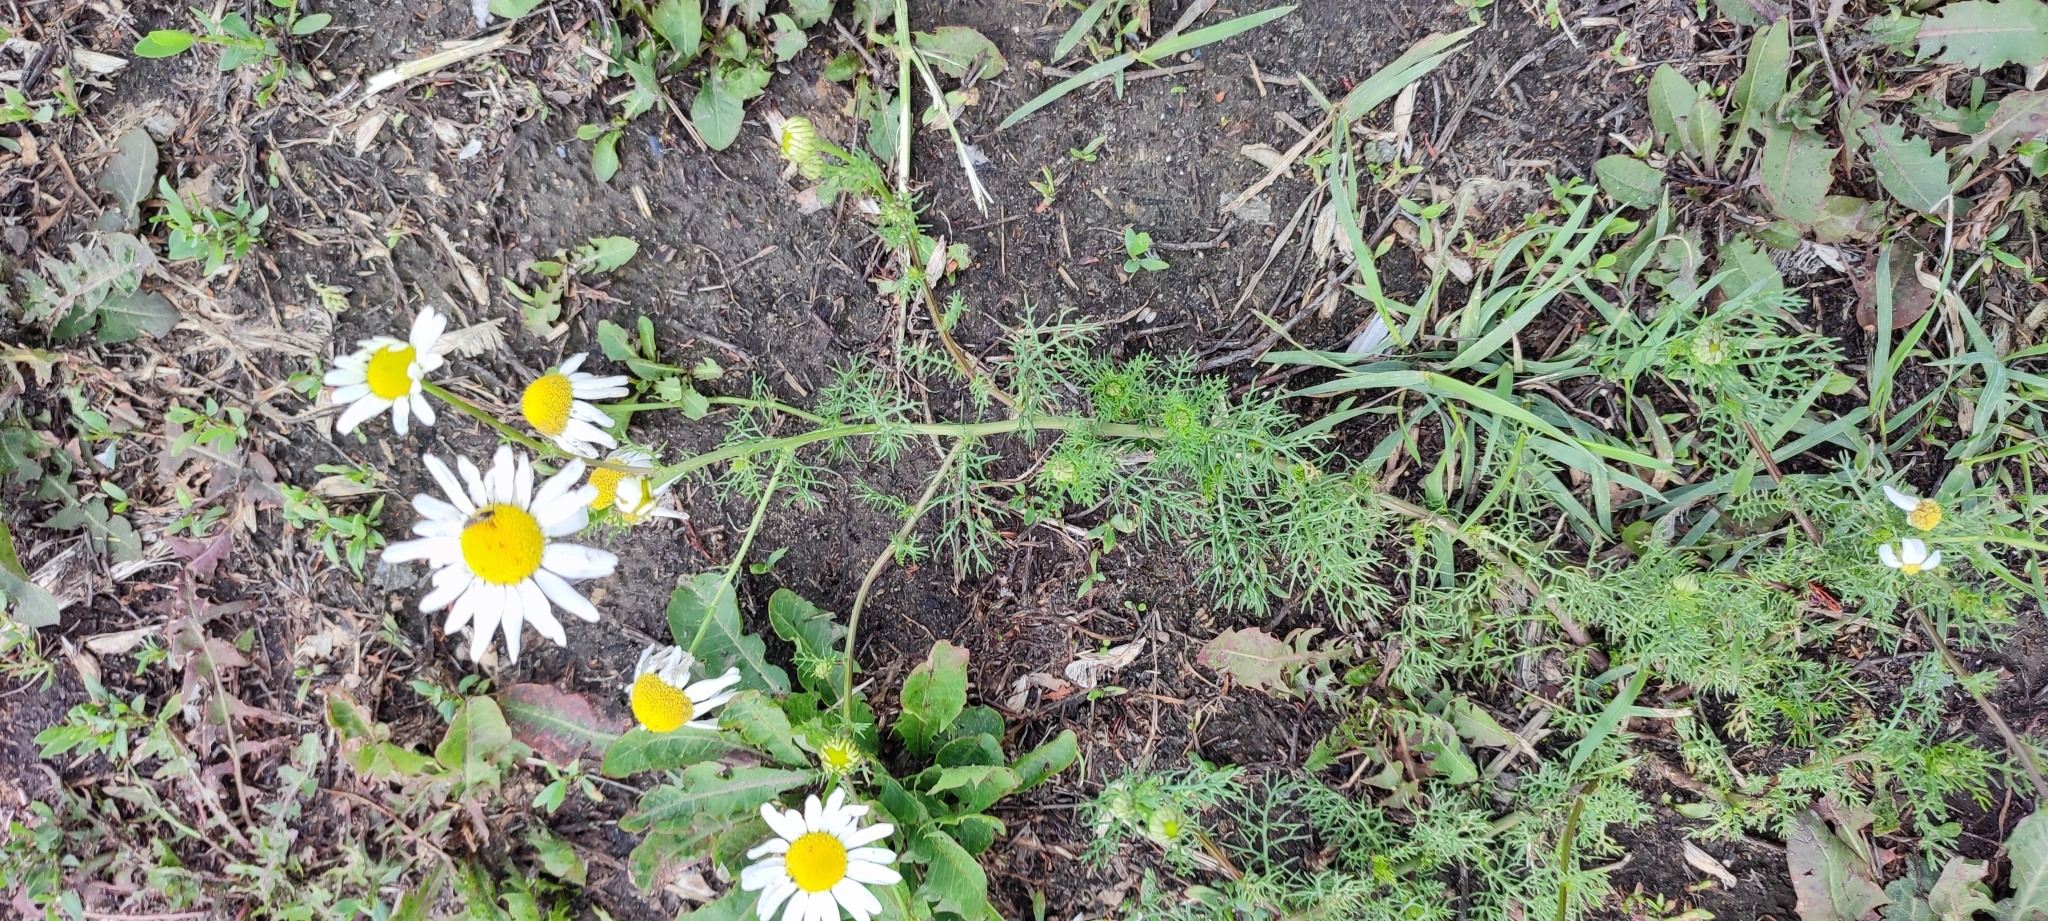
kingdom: Plantae
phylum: Tracheophyta
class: Magnoliopsida
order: Asterales
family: Asteraceae
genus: Tripleurospermum
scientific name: Tripleurospermum inodorum
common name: Scentless mayweed
